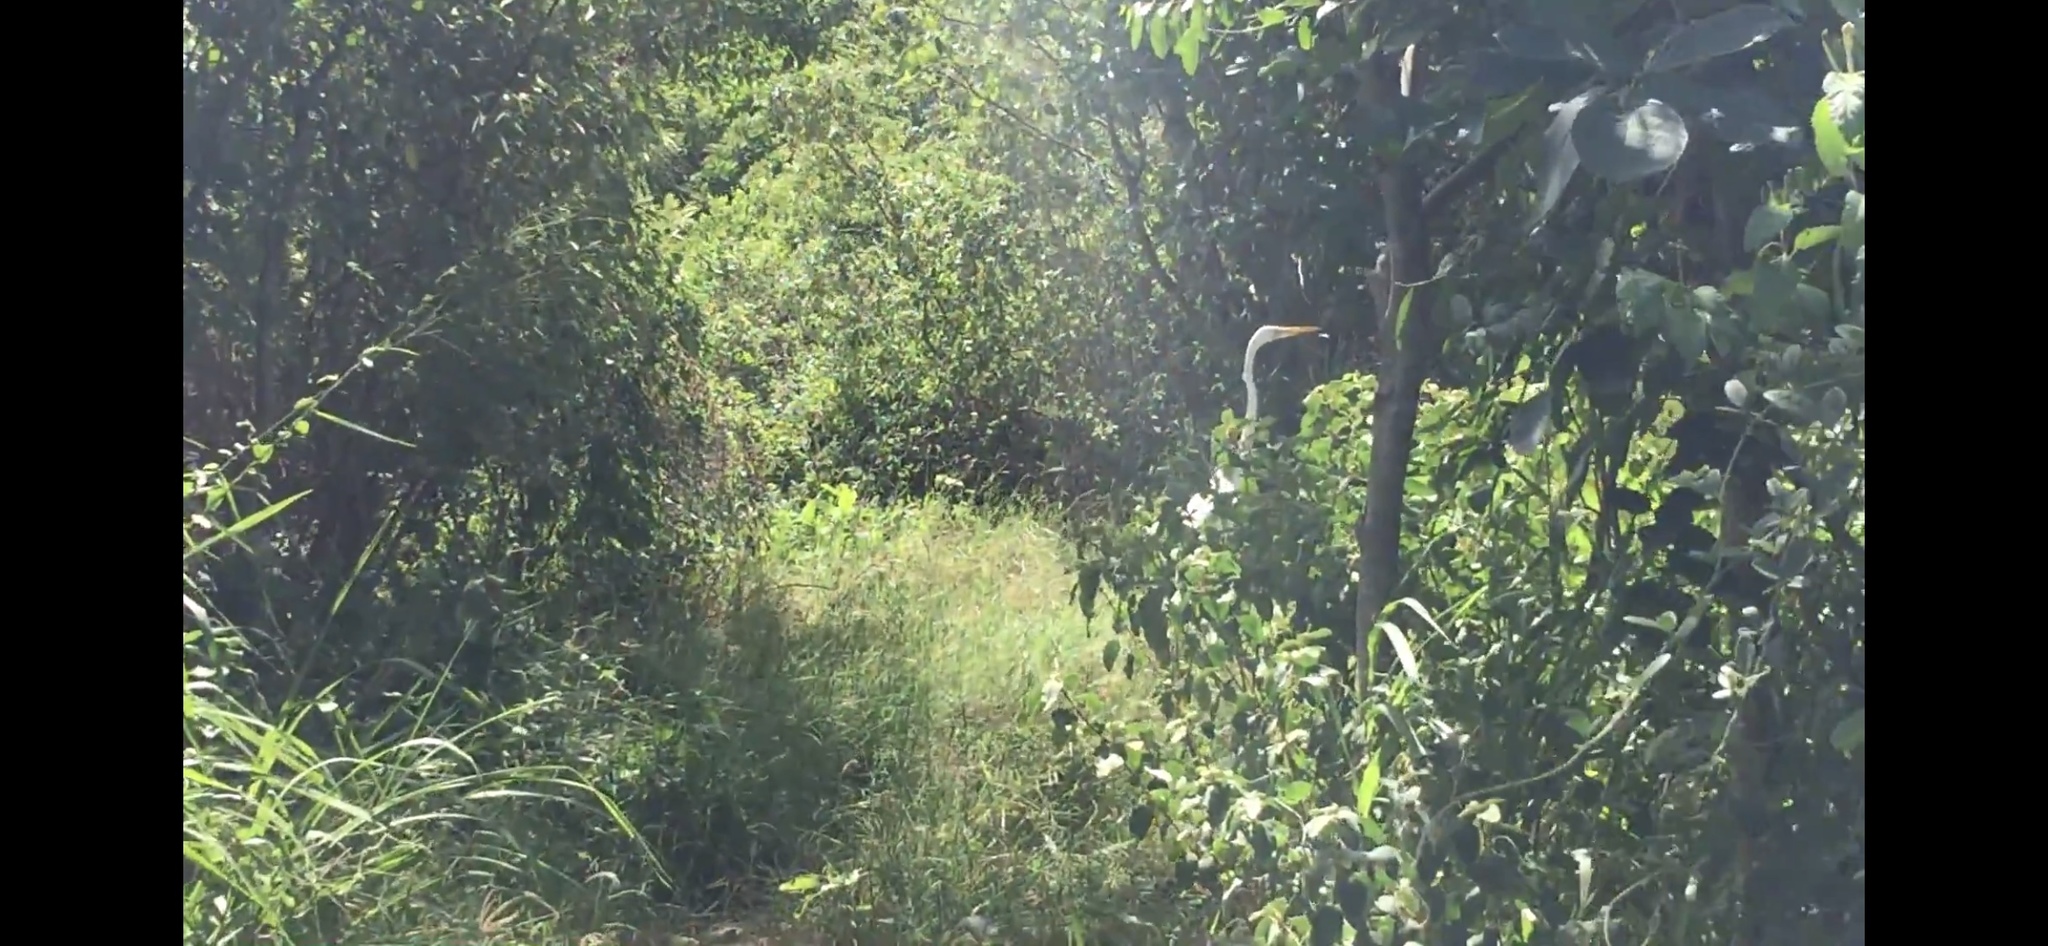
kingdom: Animalia
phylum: Chordata
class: Aves
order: Pelecaniformes
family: Ardeidae
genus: Ardea
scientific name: Ardea alba
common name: Great egret
